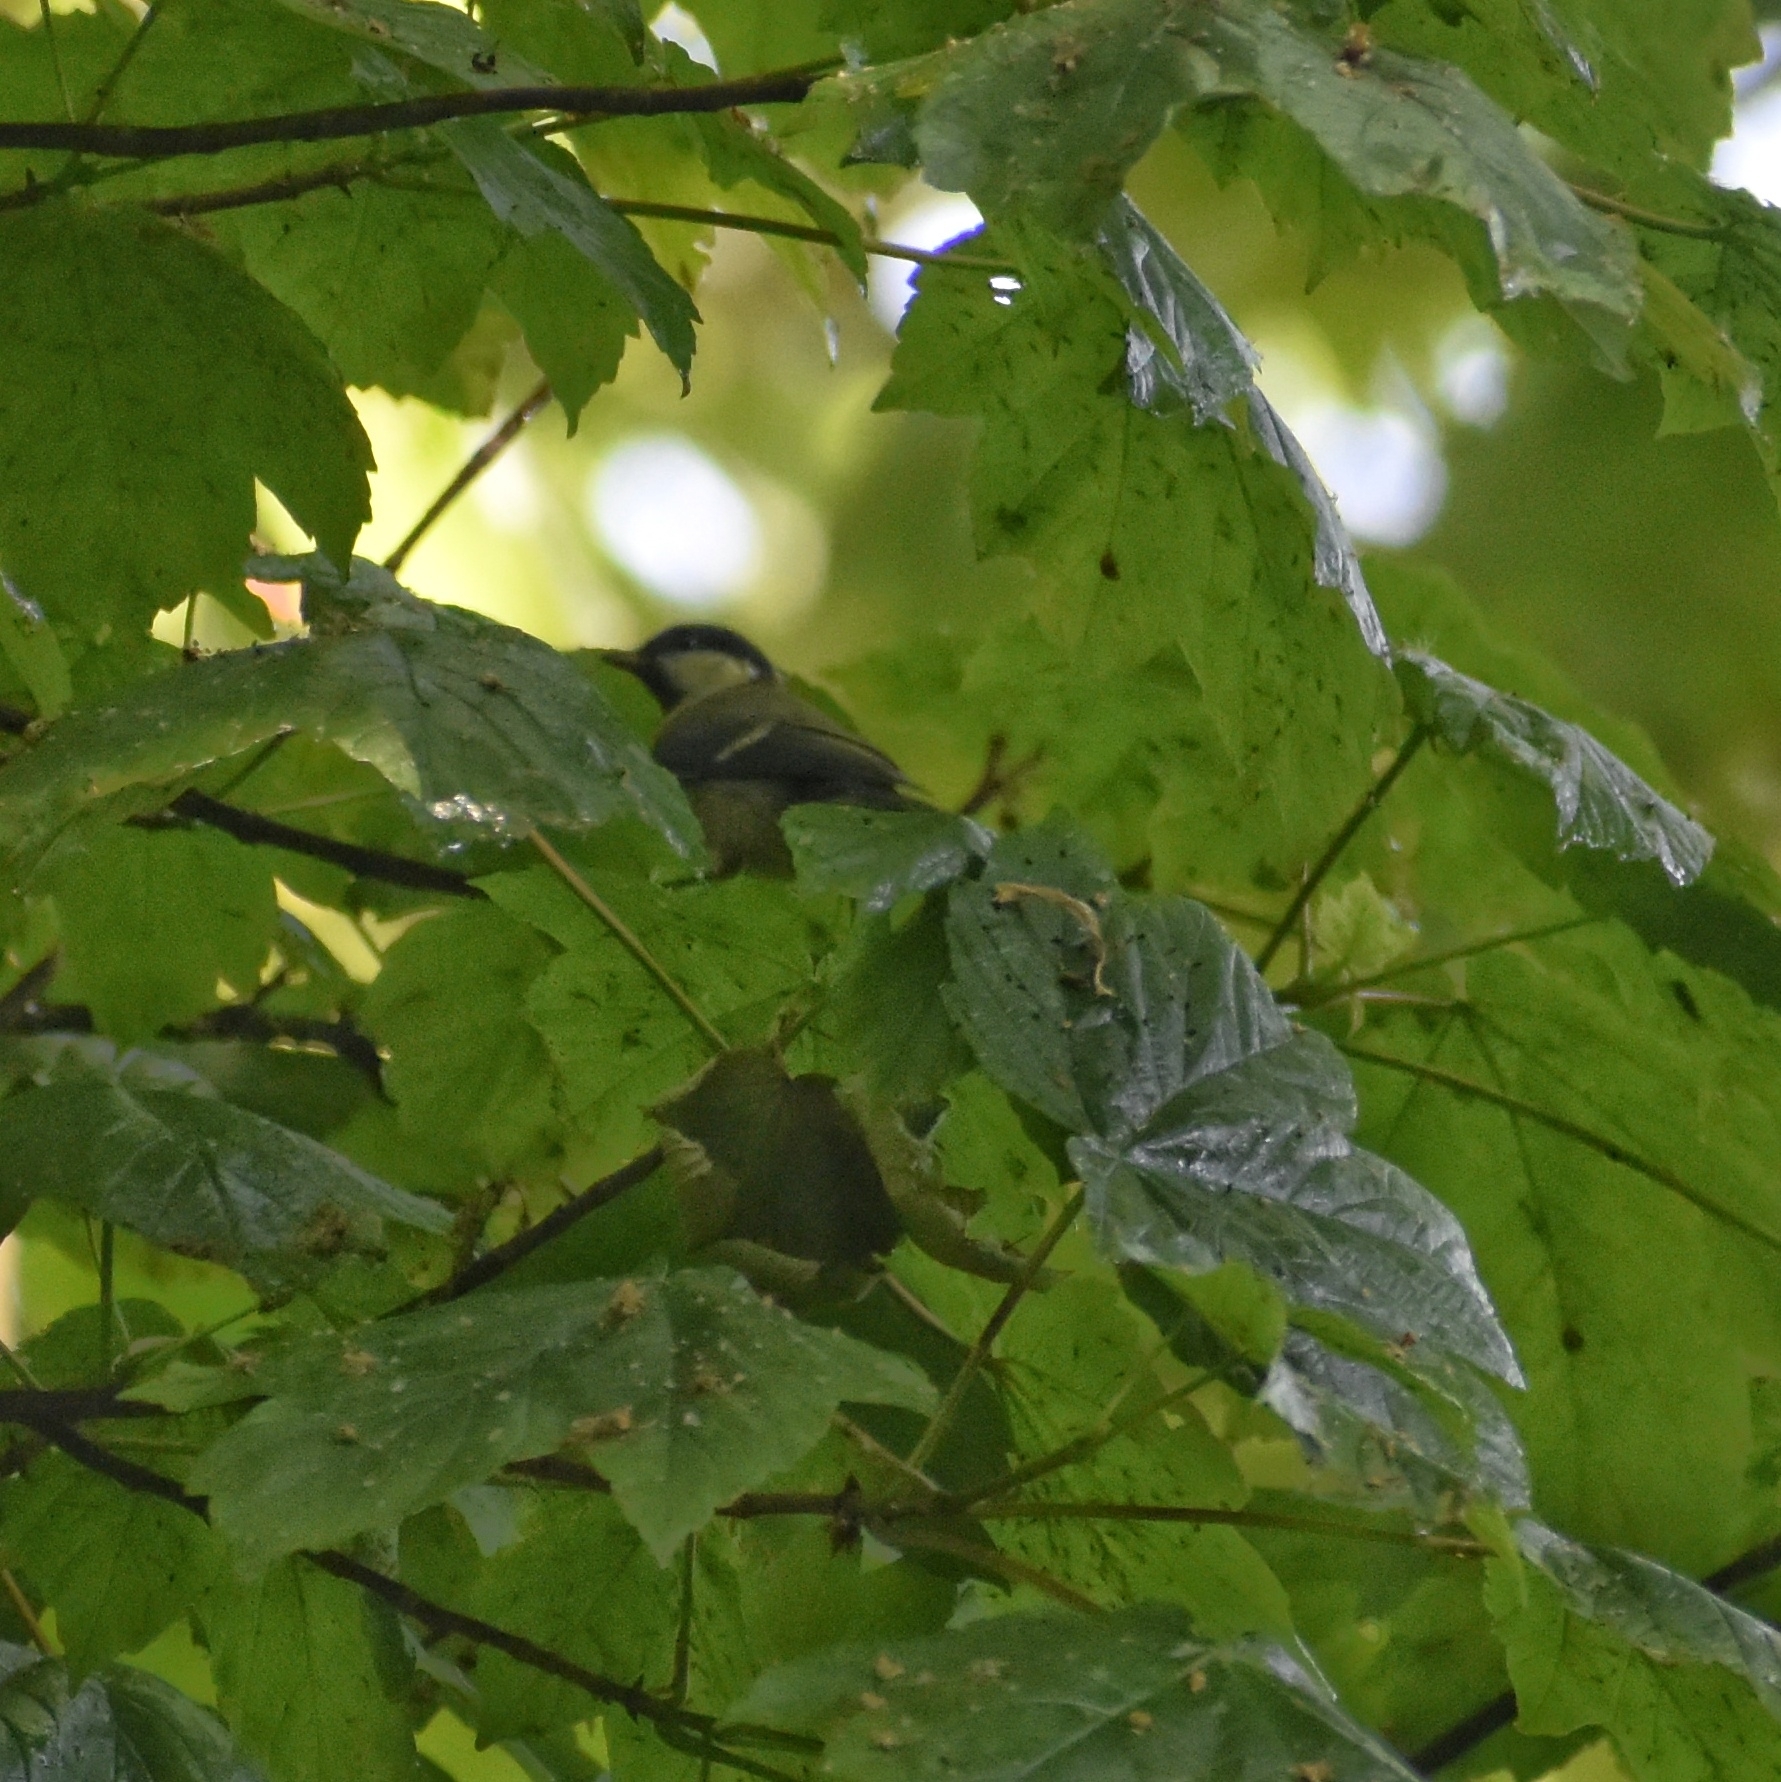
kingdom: Animalia
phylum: Chordata
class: Aves
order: Passeriformes
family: Paridae
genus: Parus
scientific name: Parus major
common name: Great tit
